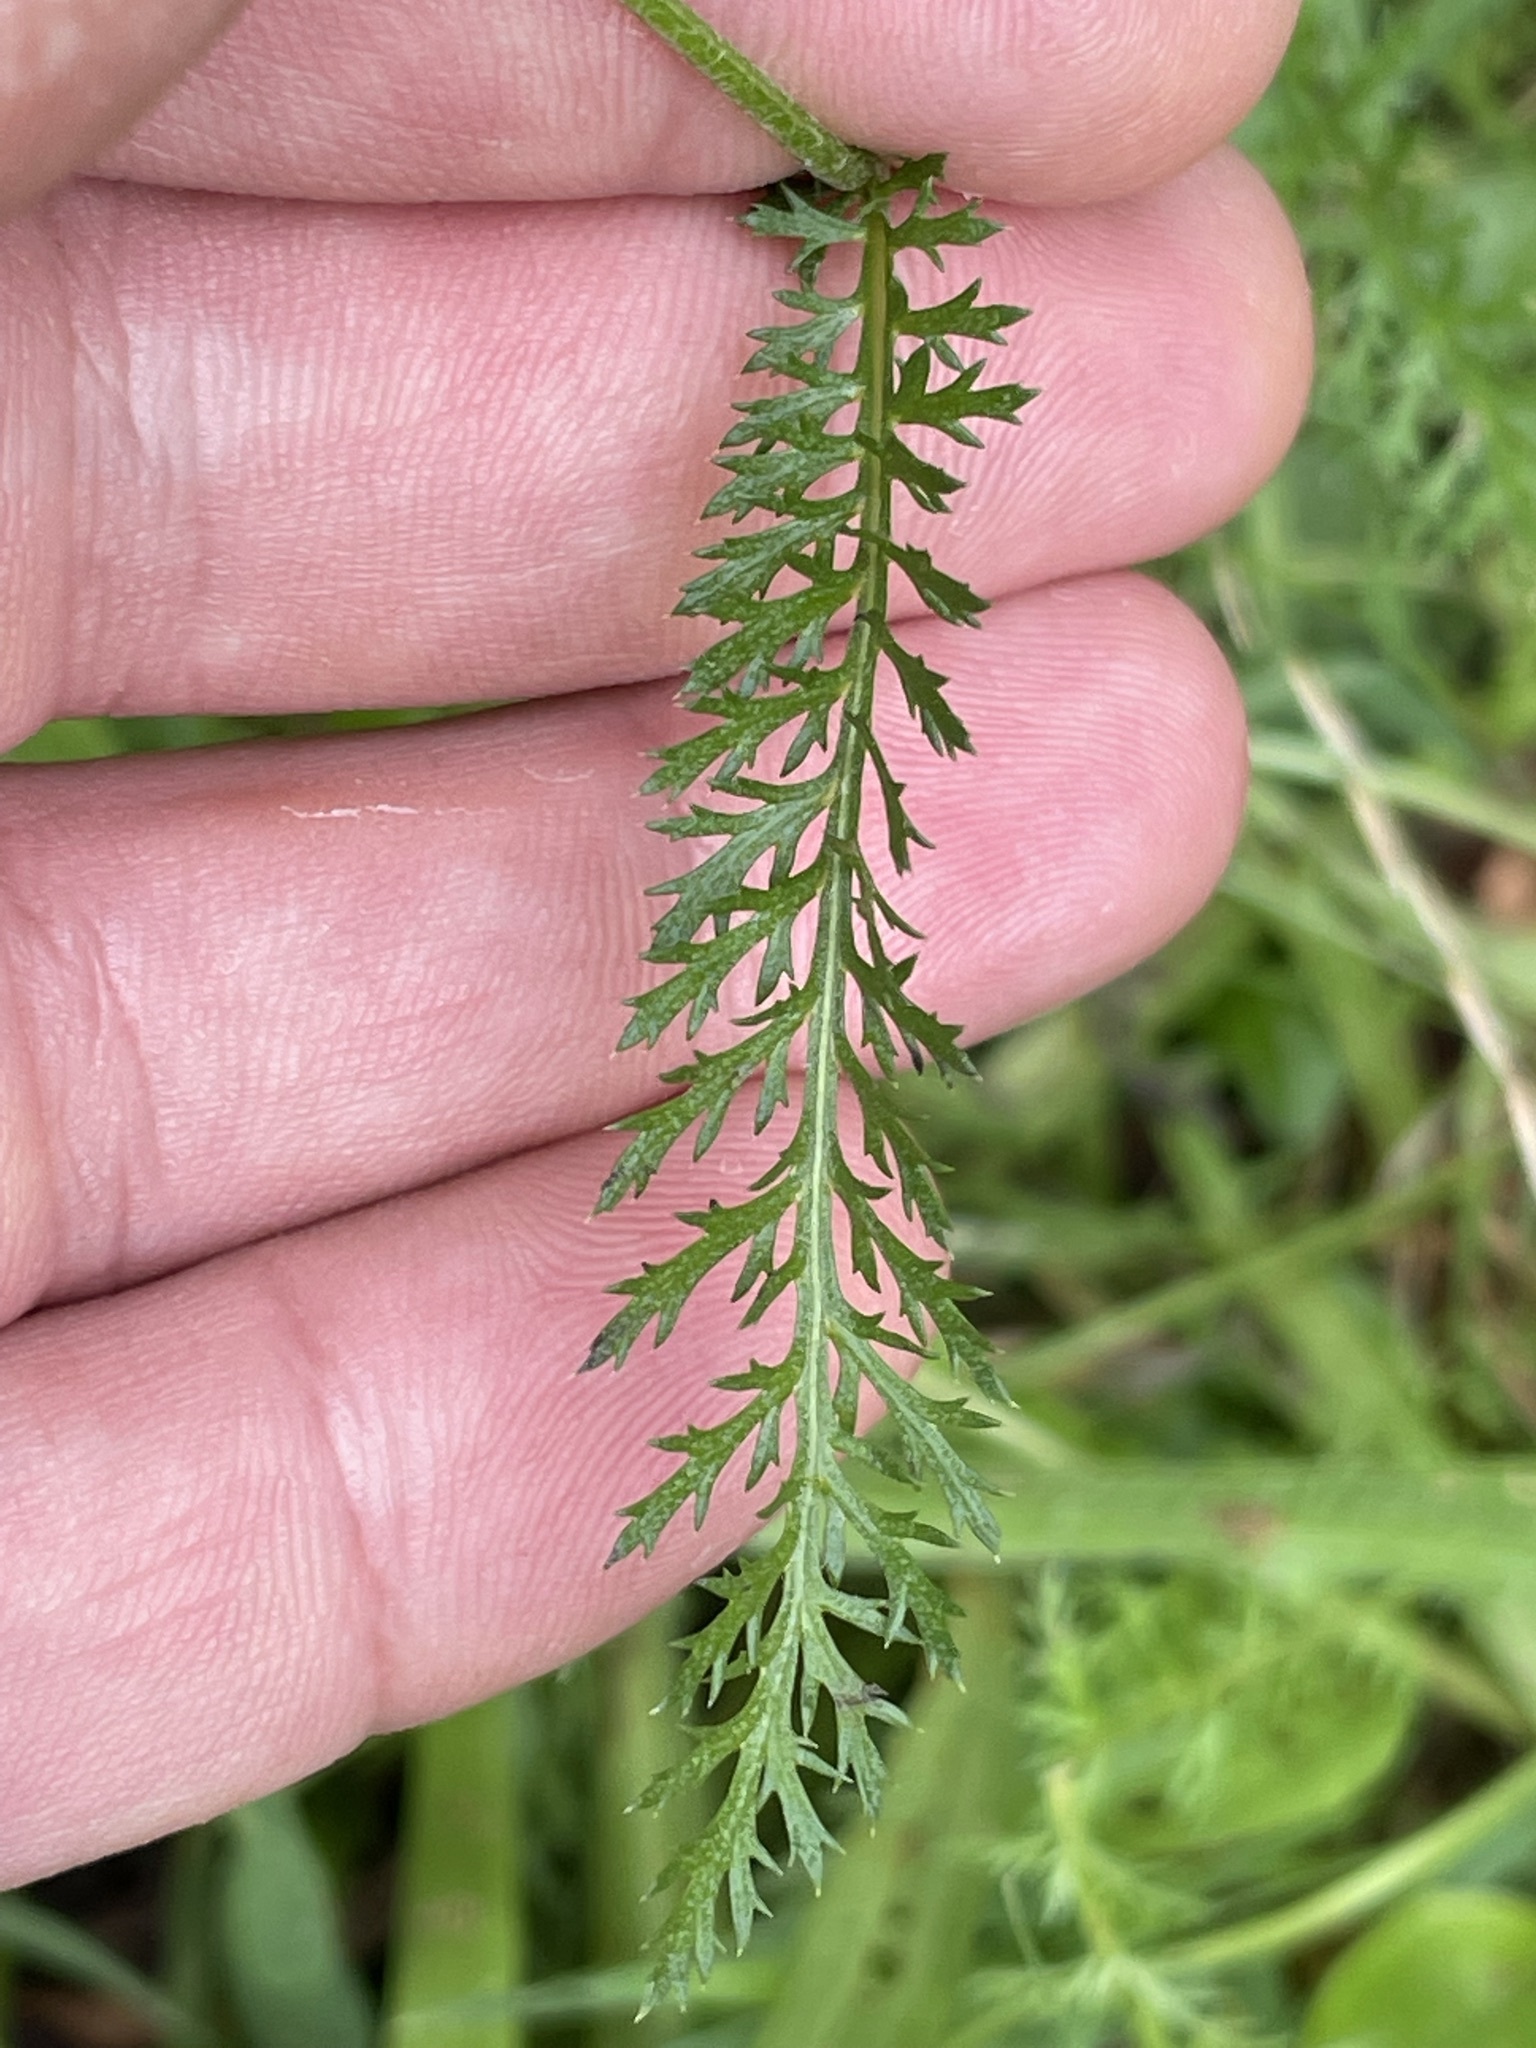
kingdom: Plantae
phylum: Tracheophyta
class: Magnoliopsida
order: Asterales
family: Asteraceae
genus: Achillea
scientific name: Achillea millefolium
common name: Yarrow
